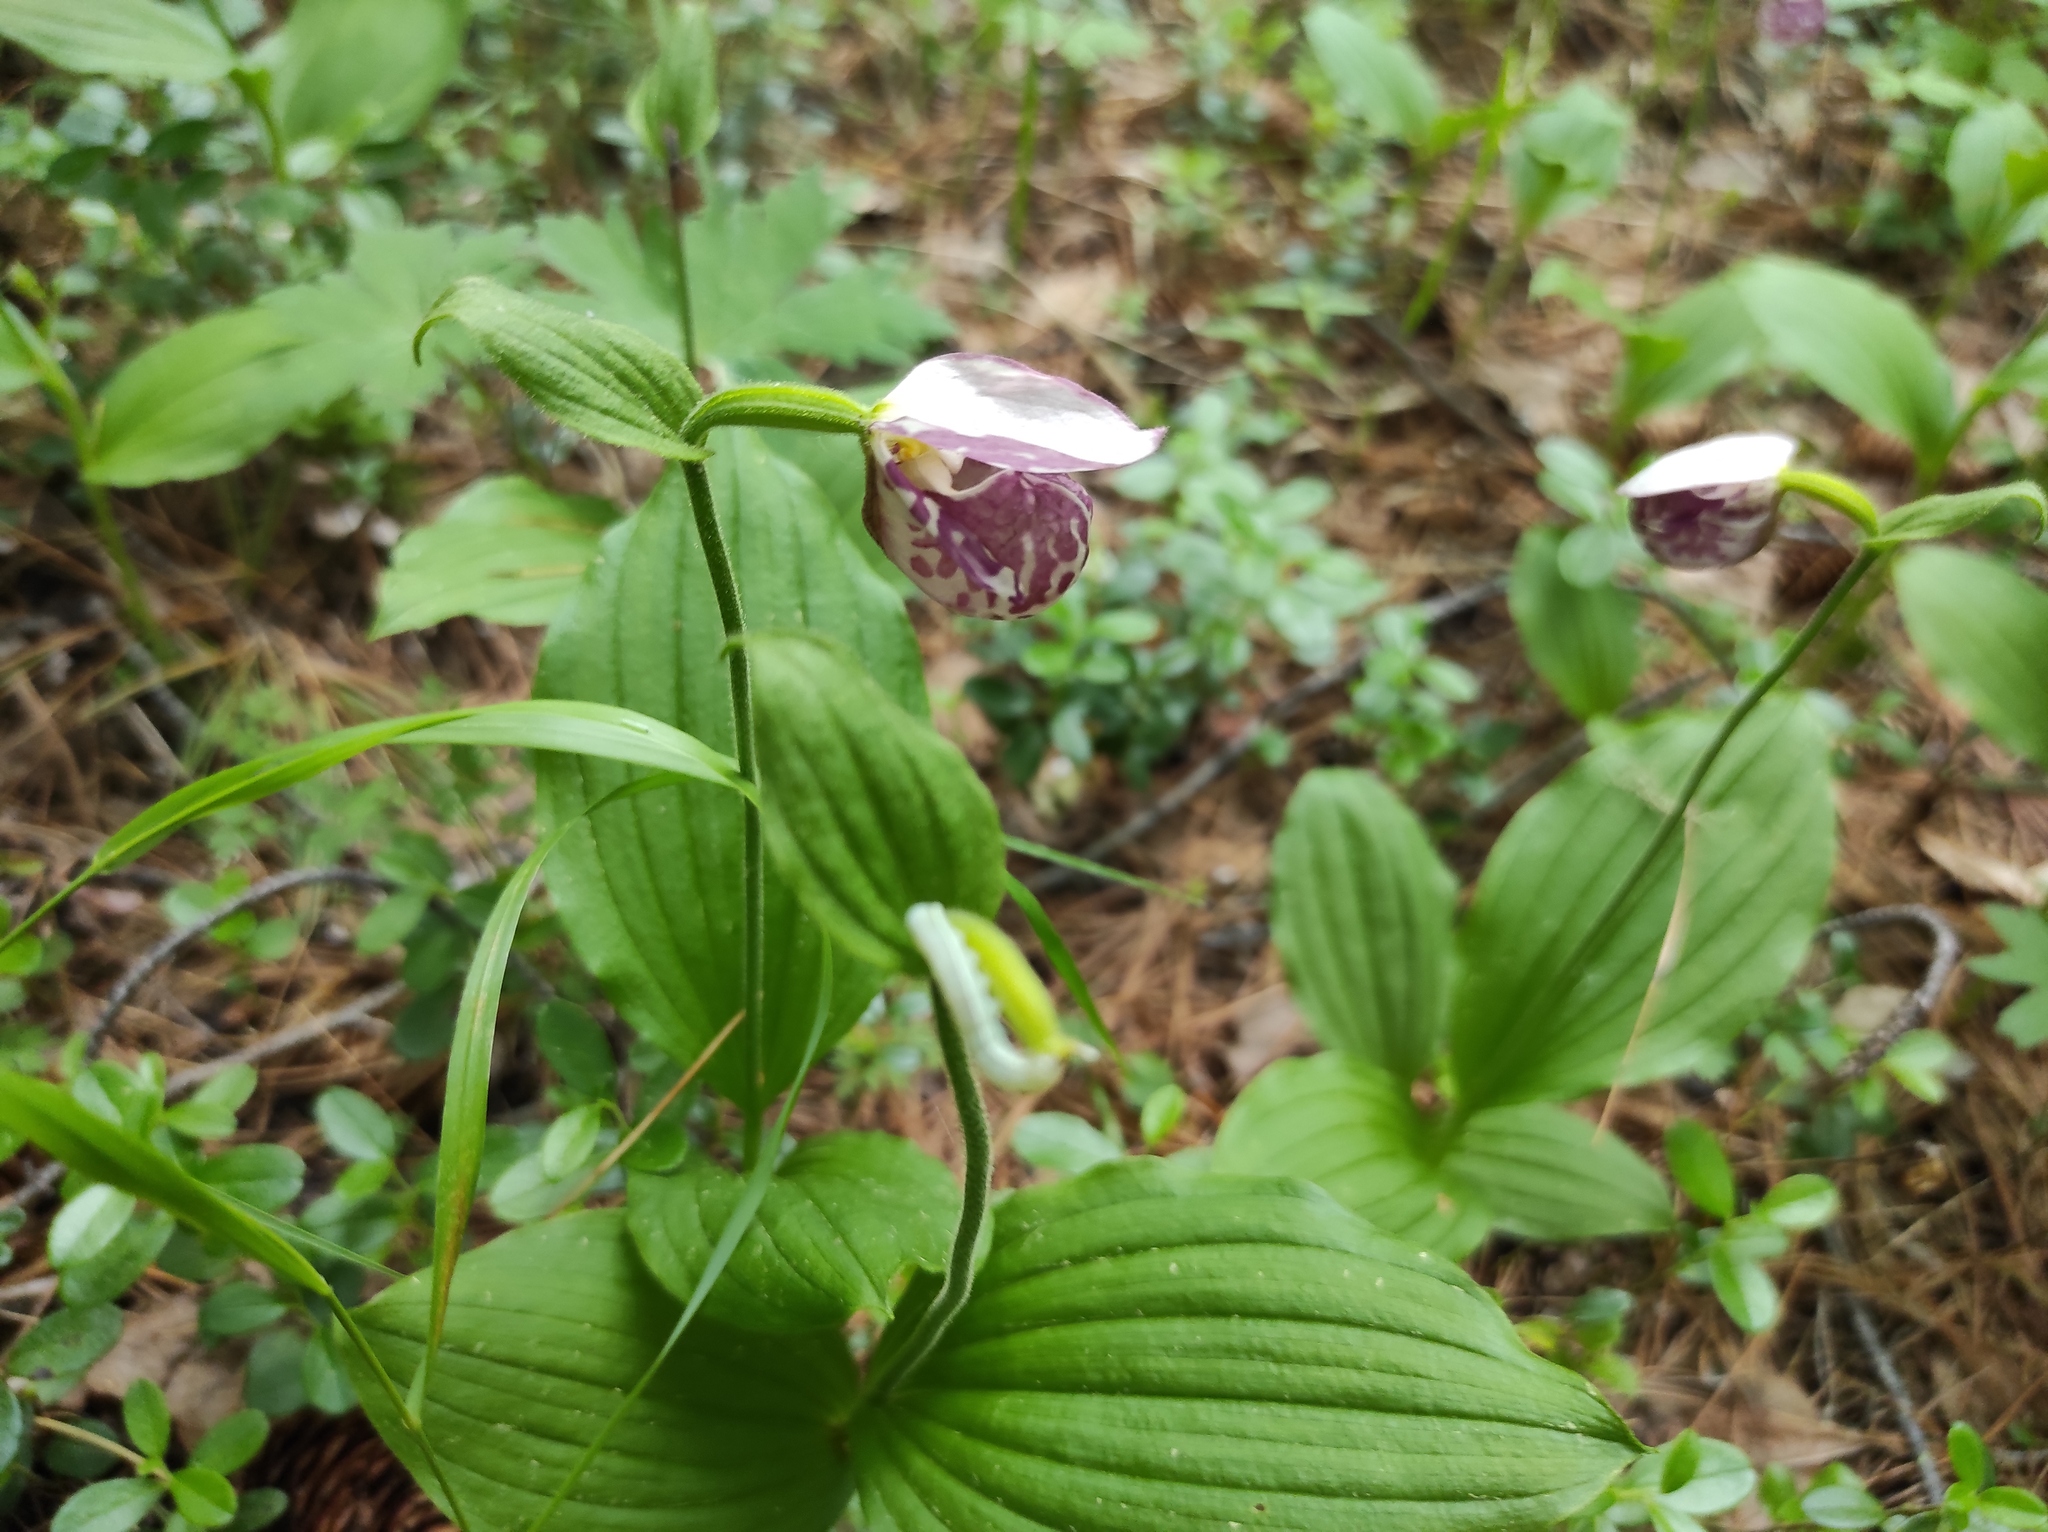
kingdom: Plantae
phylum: Tracheophyta
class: Liliopsida
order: Asparagales
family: Orchidaceae
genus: Cypripedium
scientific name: Cypripedium guttatum
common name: Pink lady slipper
